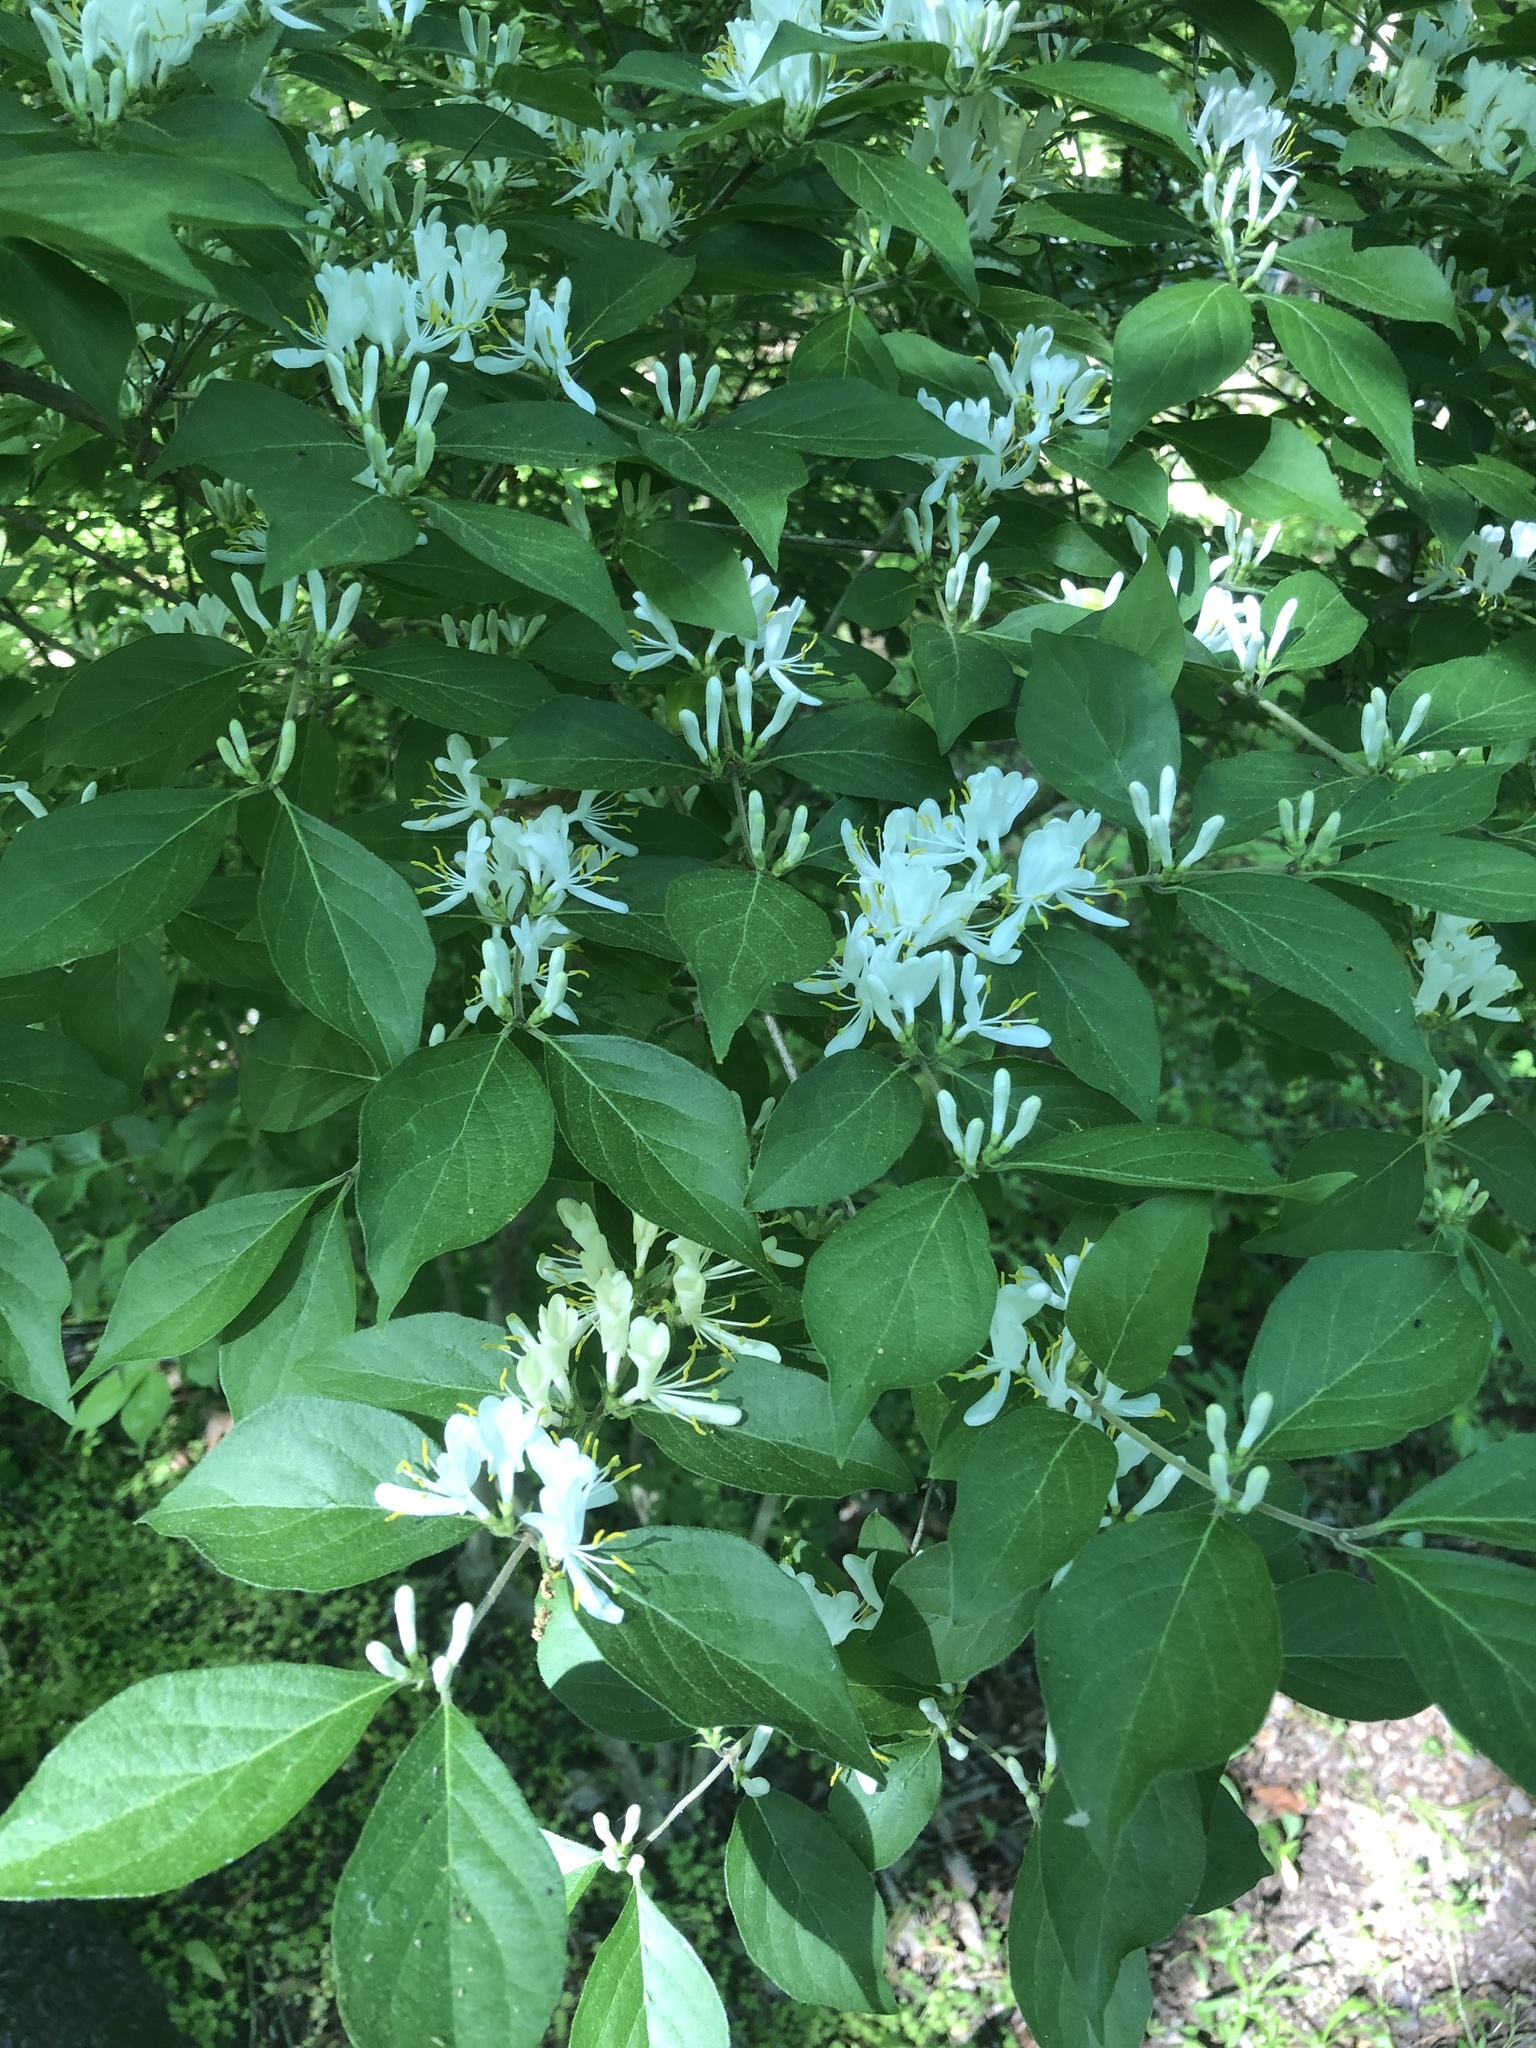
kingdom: Plantae
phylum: Tracheophyta
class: Magnoliopsida
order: Dipsacales
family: Caprifoliaceae
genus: Lonicera
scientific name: Lonicera maackii
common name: Amur honeysuckle
